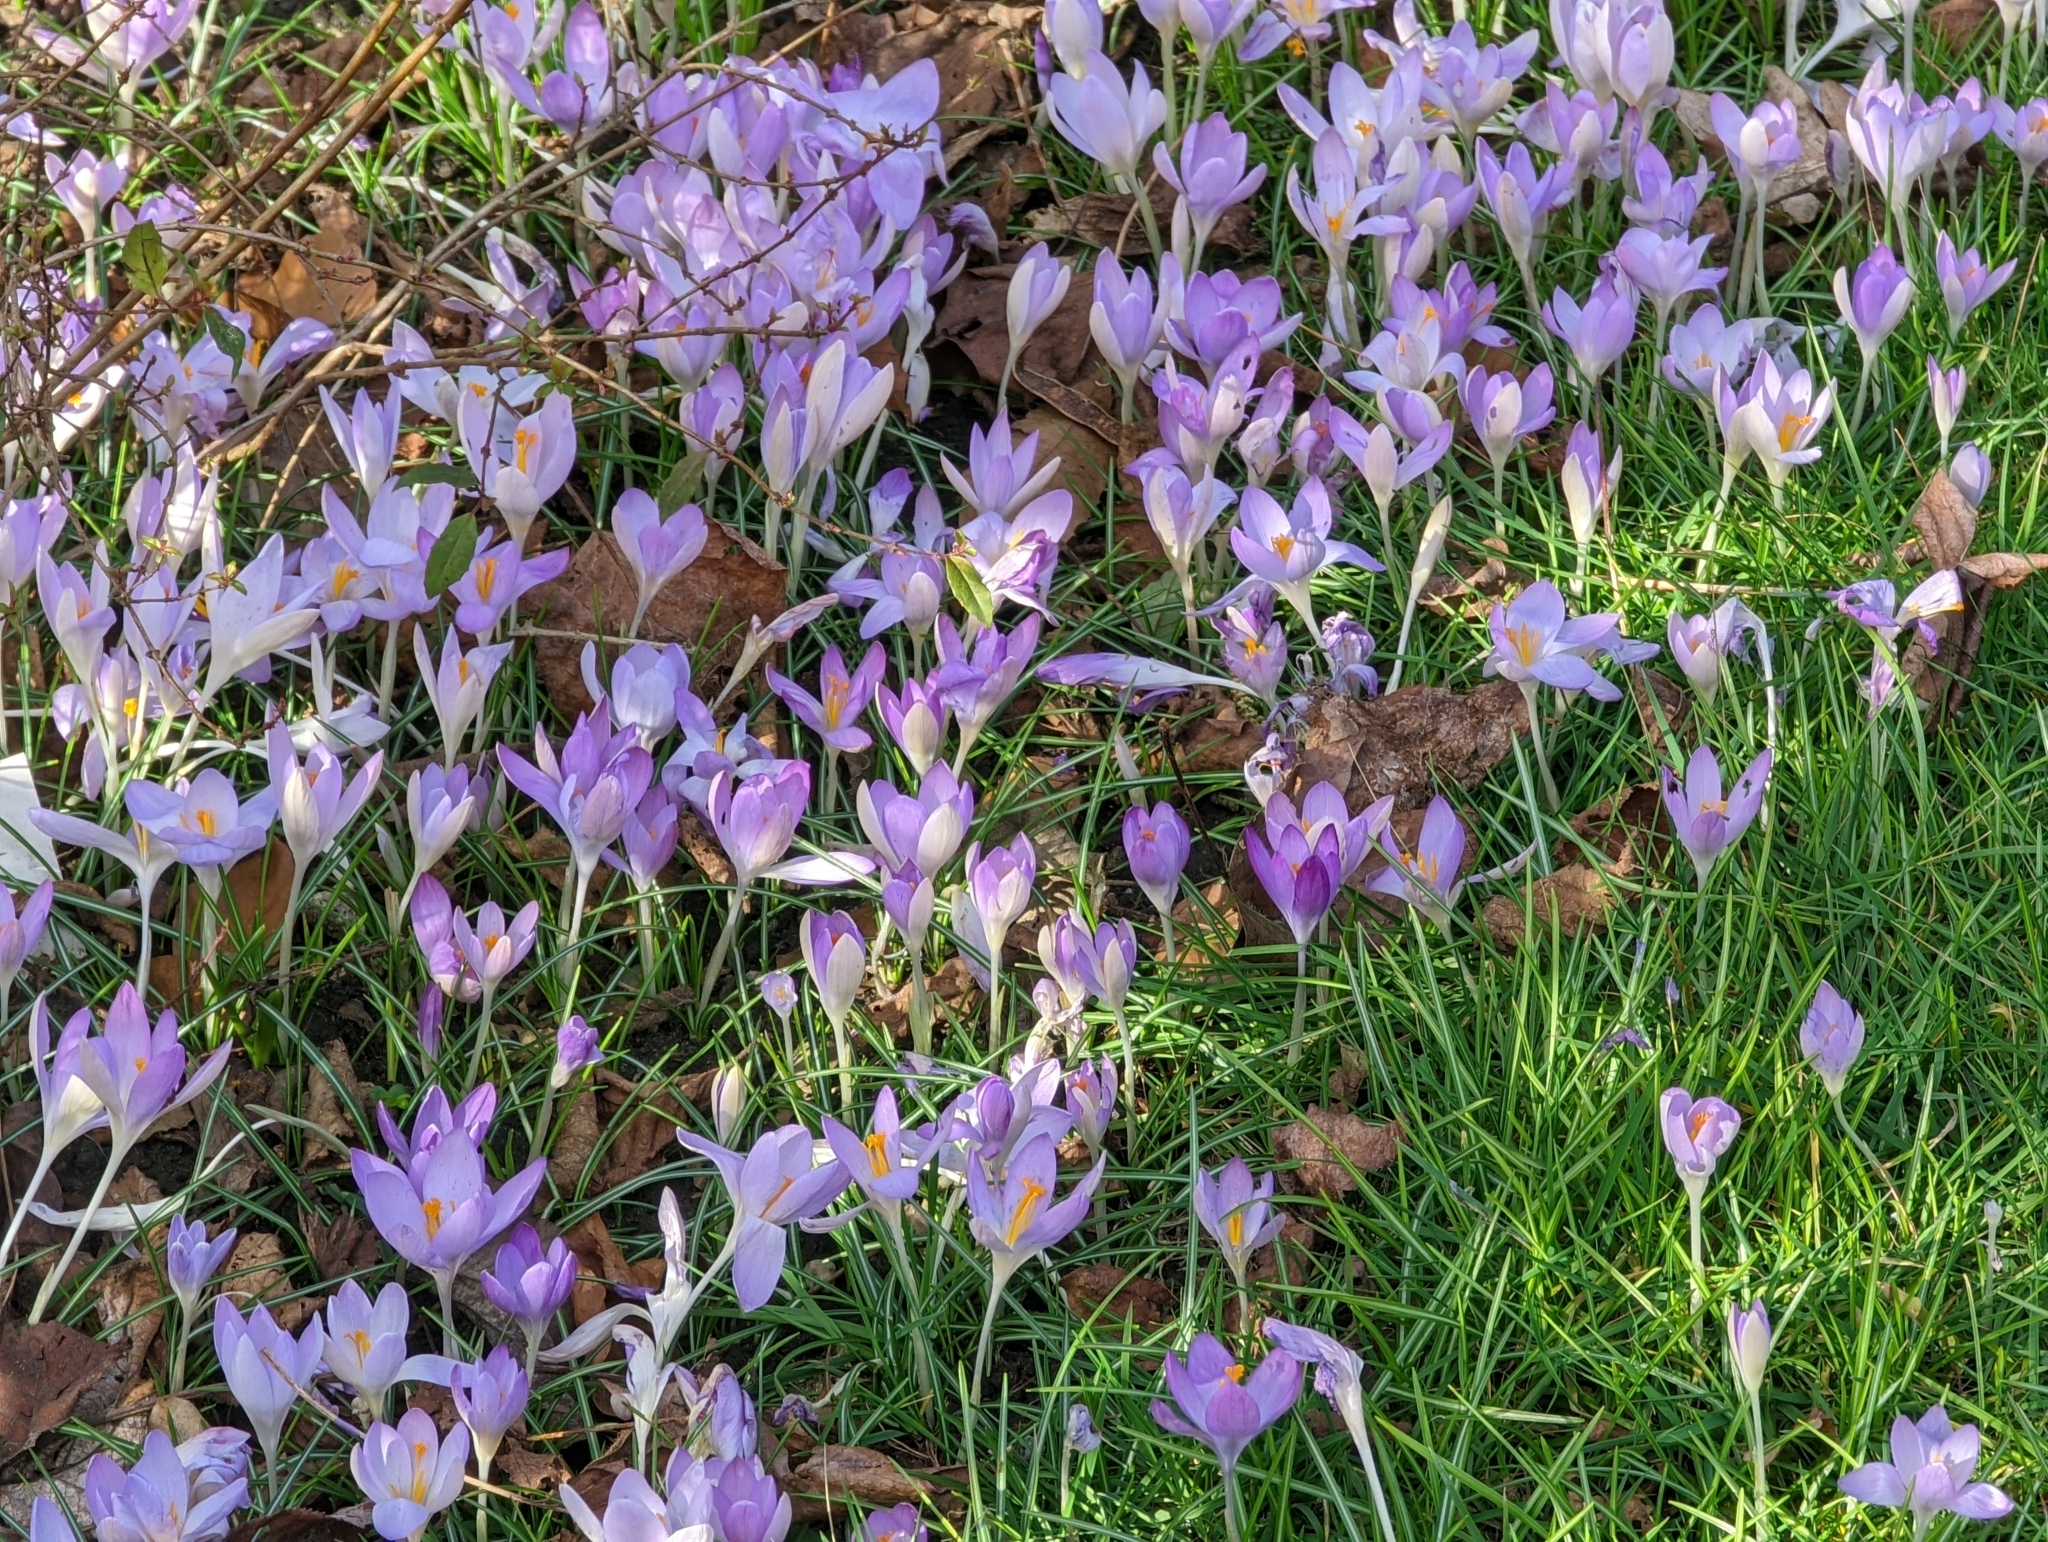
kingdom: Plantae
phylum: Tracheophyta
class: Liliopsida
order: Asparagales
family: Iridaceae
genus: Crocus
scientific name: Crocus tommasinianus
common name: Early crocus
